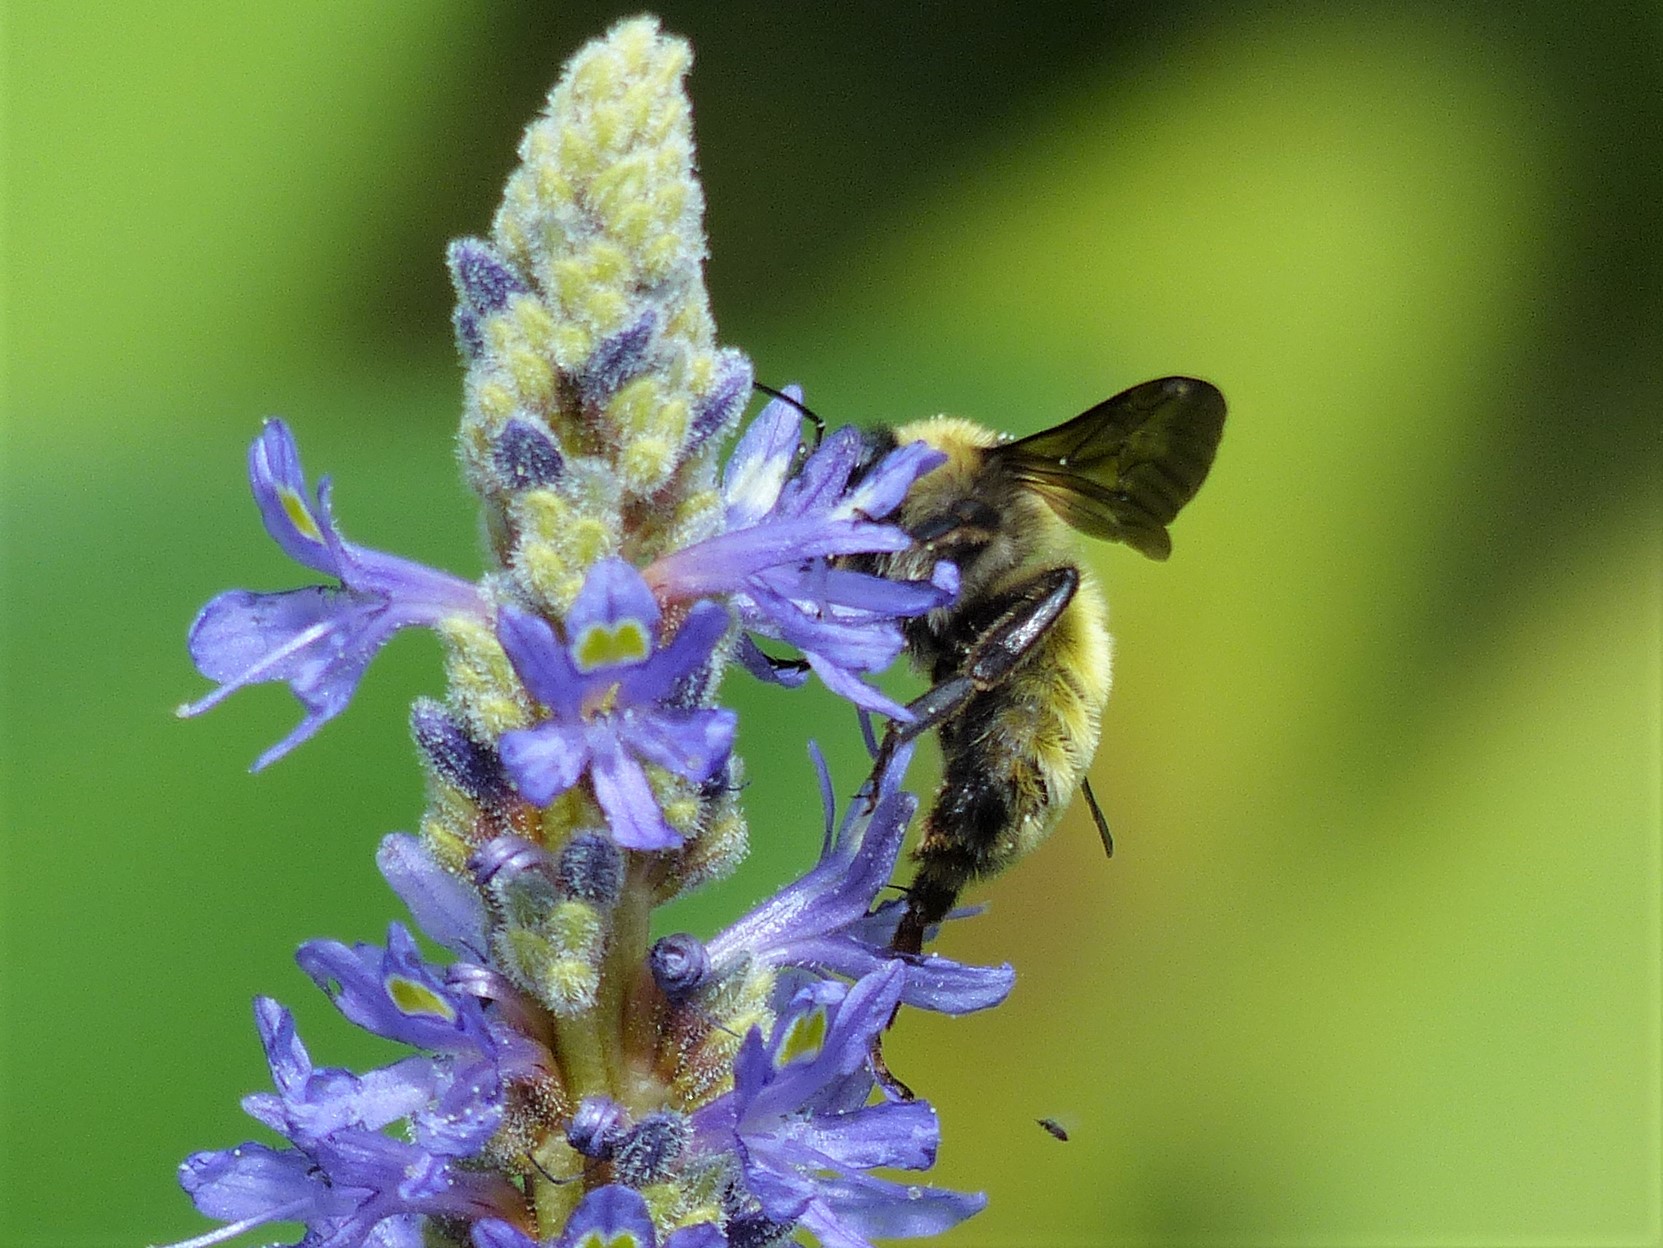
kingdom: Animalia
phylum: Arthropoda
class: Insecta
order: Hymenoptera
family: Apidae
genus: Bombus
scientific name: Bombus pensylvanicus
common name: Bumble bee
